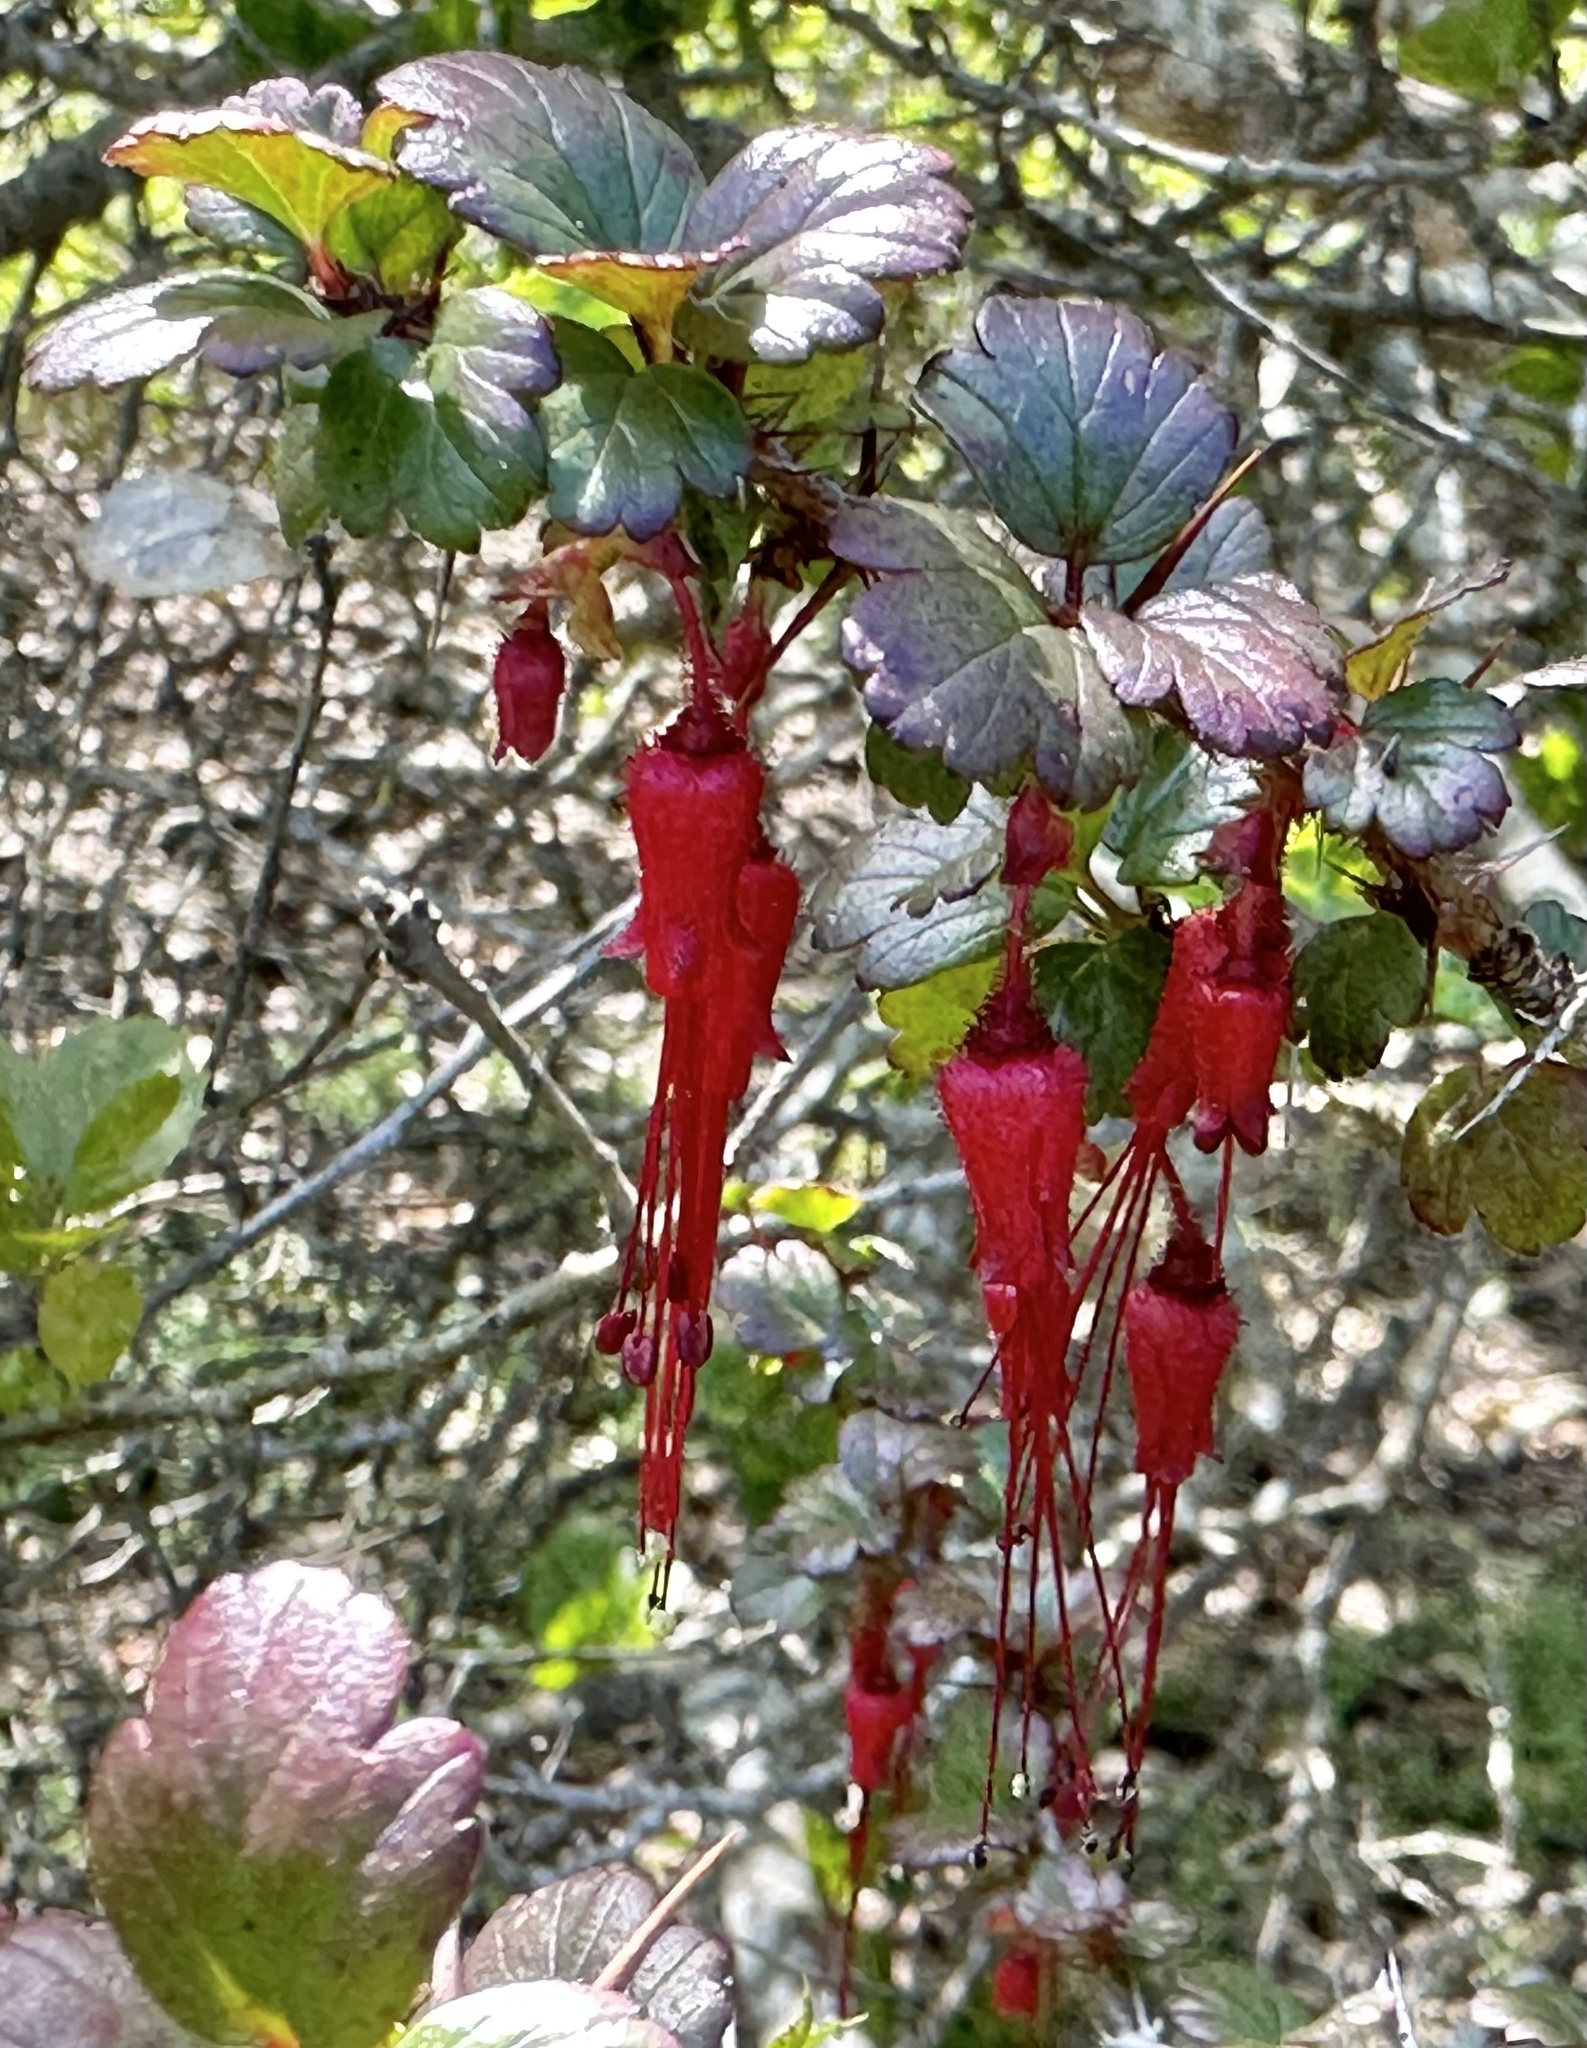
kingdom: Plantae
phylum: Tracheophyta
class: Magnoliopsida
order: Saxifragales
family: Grossulariaceae
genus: Ribes
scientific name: Ribes speciosum
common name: Fuchsia-flower gooseberry
